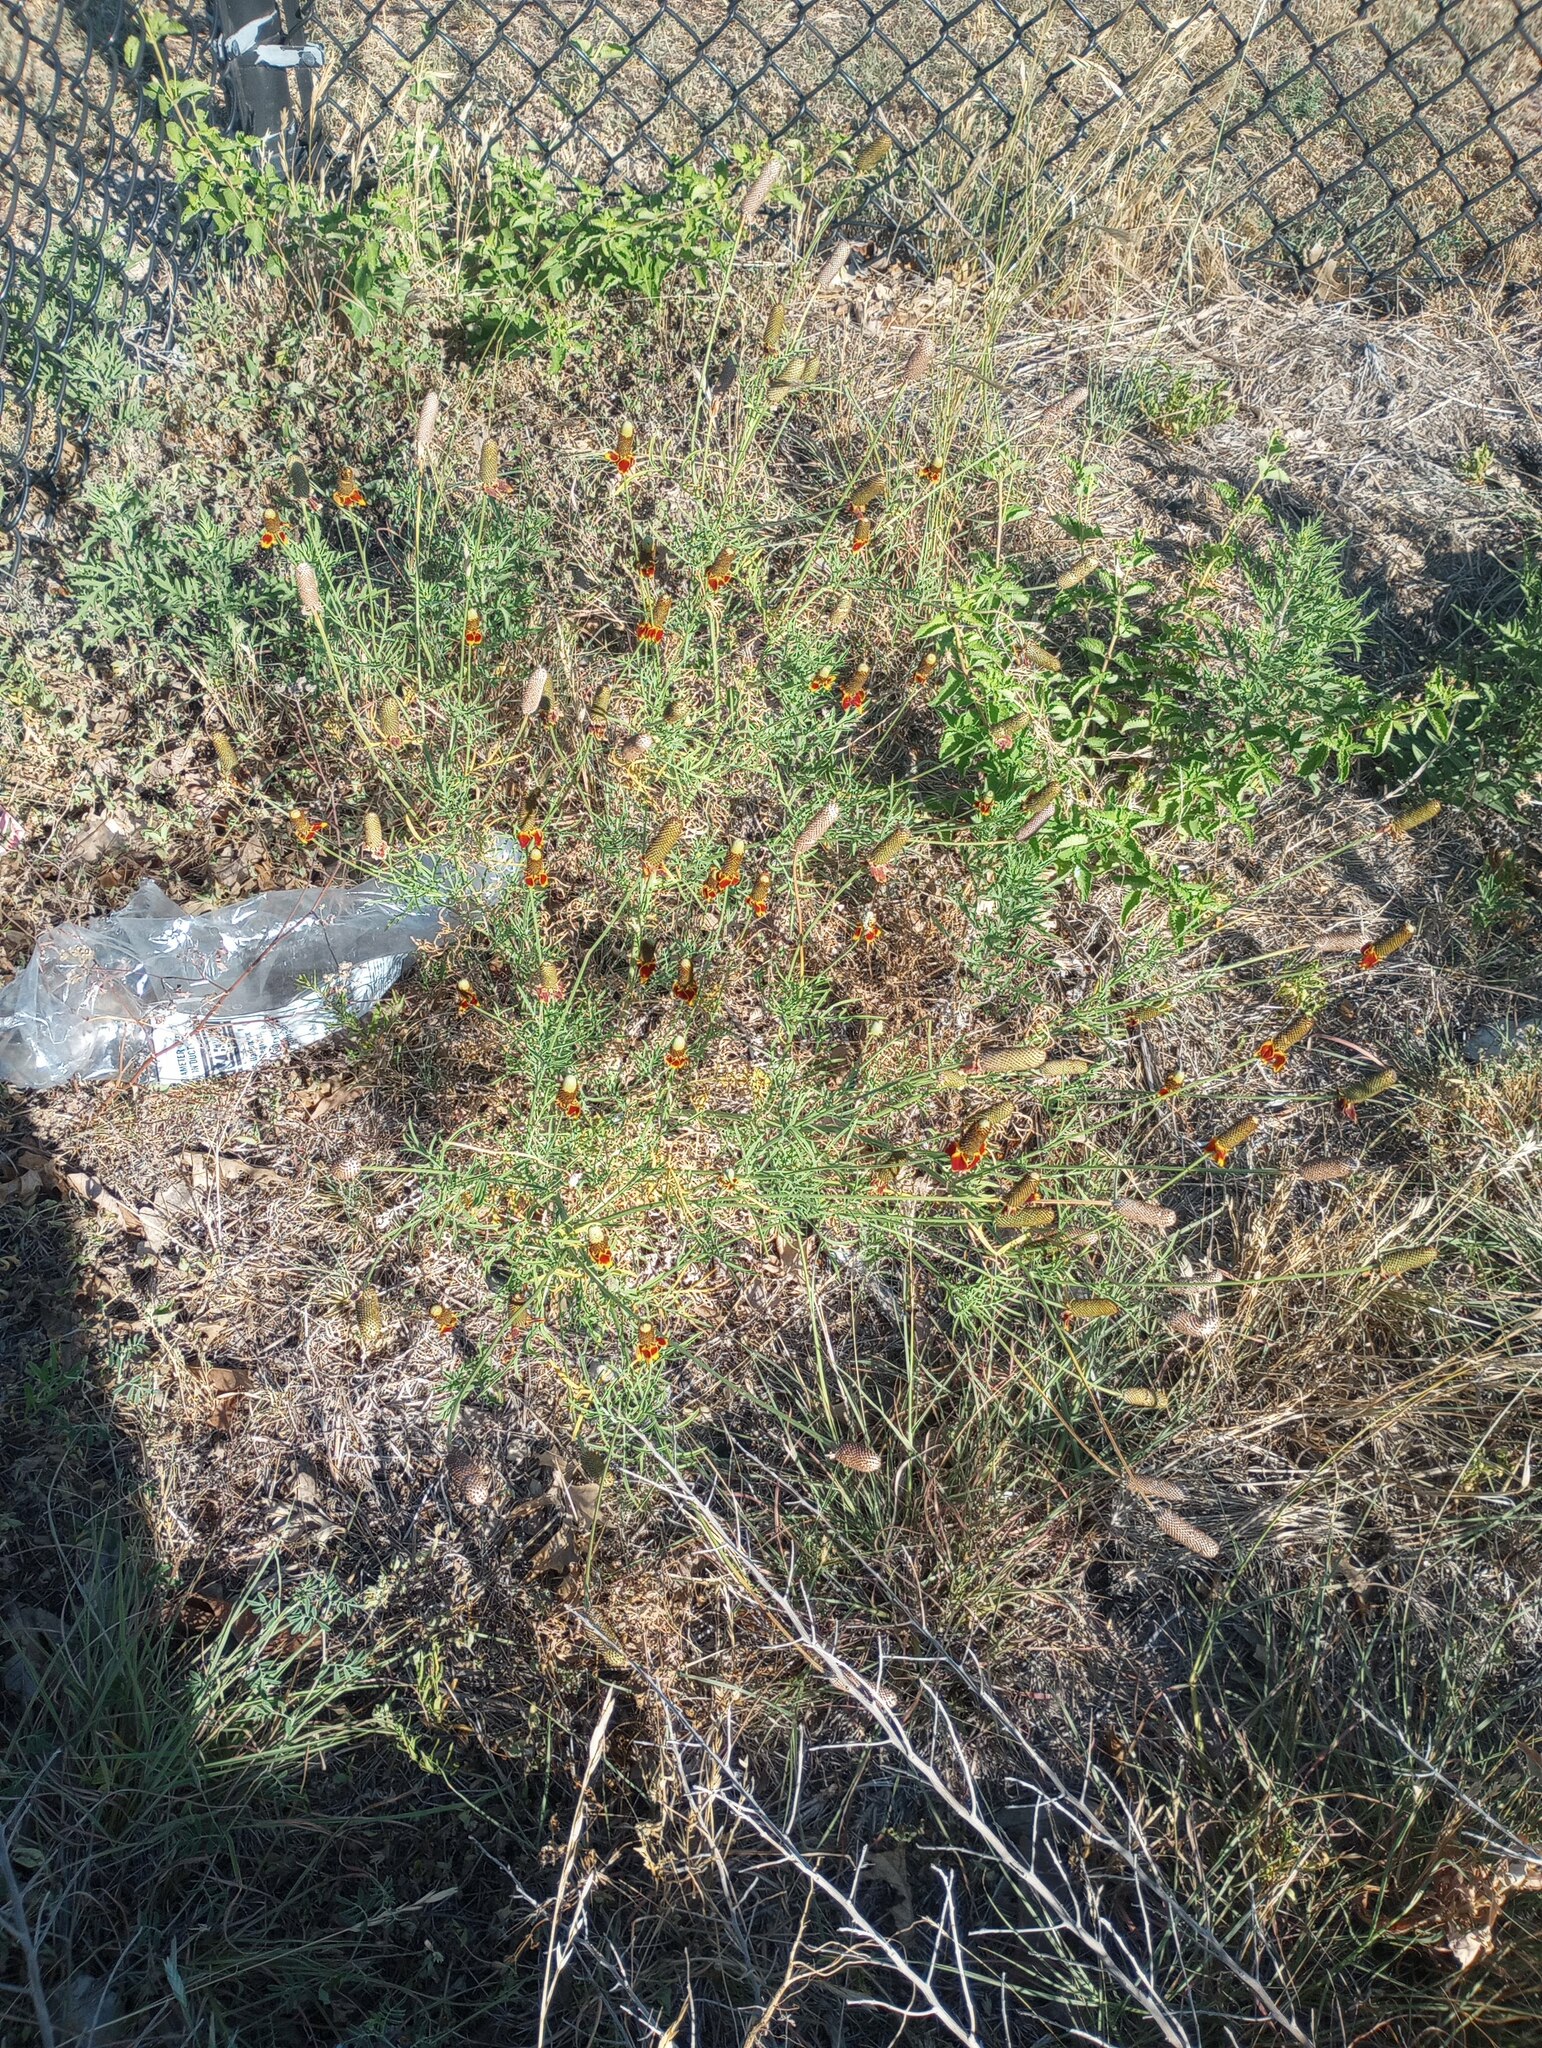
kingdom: Plantae
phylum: Tracheophyta
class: Magnoliopsida
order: Asterales
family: Asteraceae
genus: Ratibida
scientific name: Ratibida columnifera
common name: Prairie coneflower
